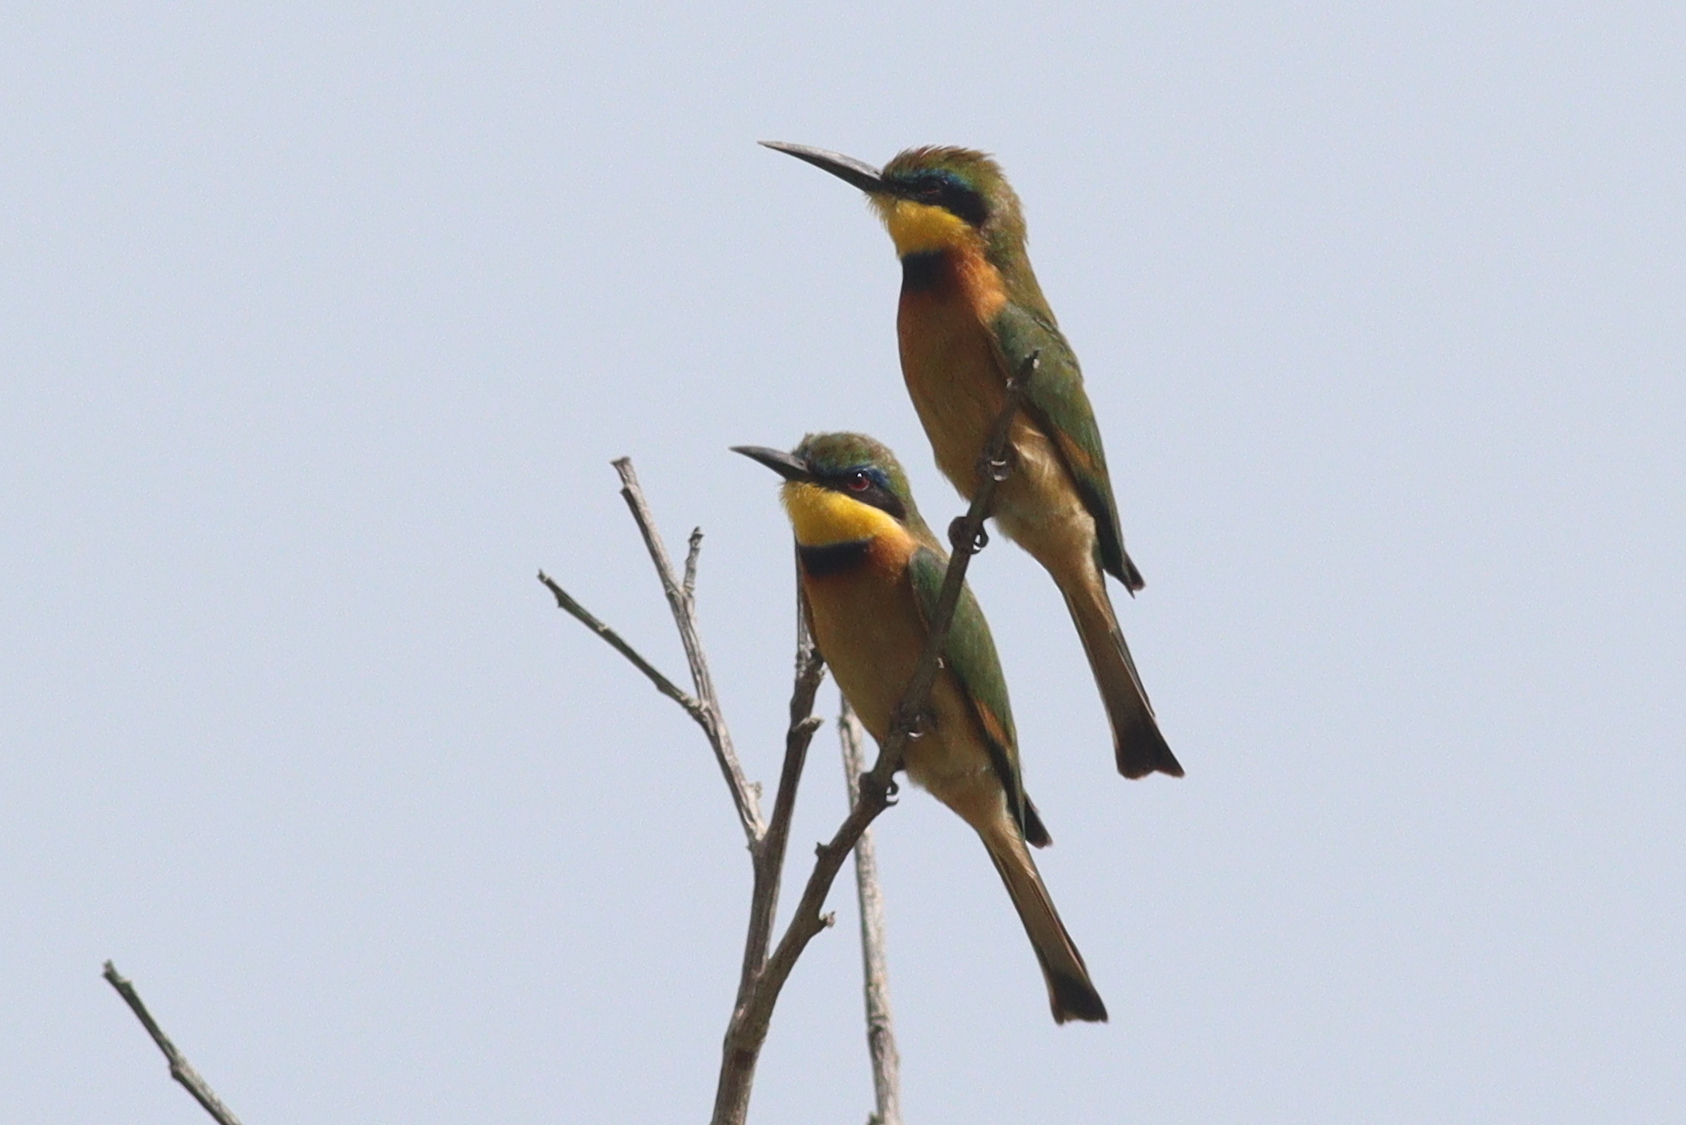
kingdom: Animalia
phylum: Chordata
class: Aves
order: Coraciiformes
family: Meropidae
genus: Merops
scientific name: Merops pusillus
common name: Little bee-eater
